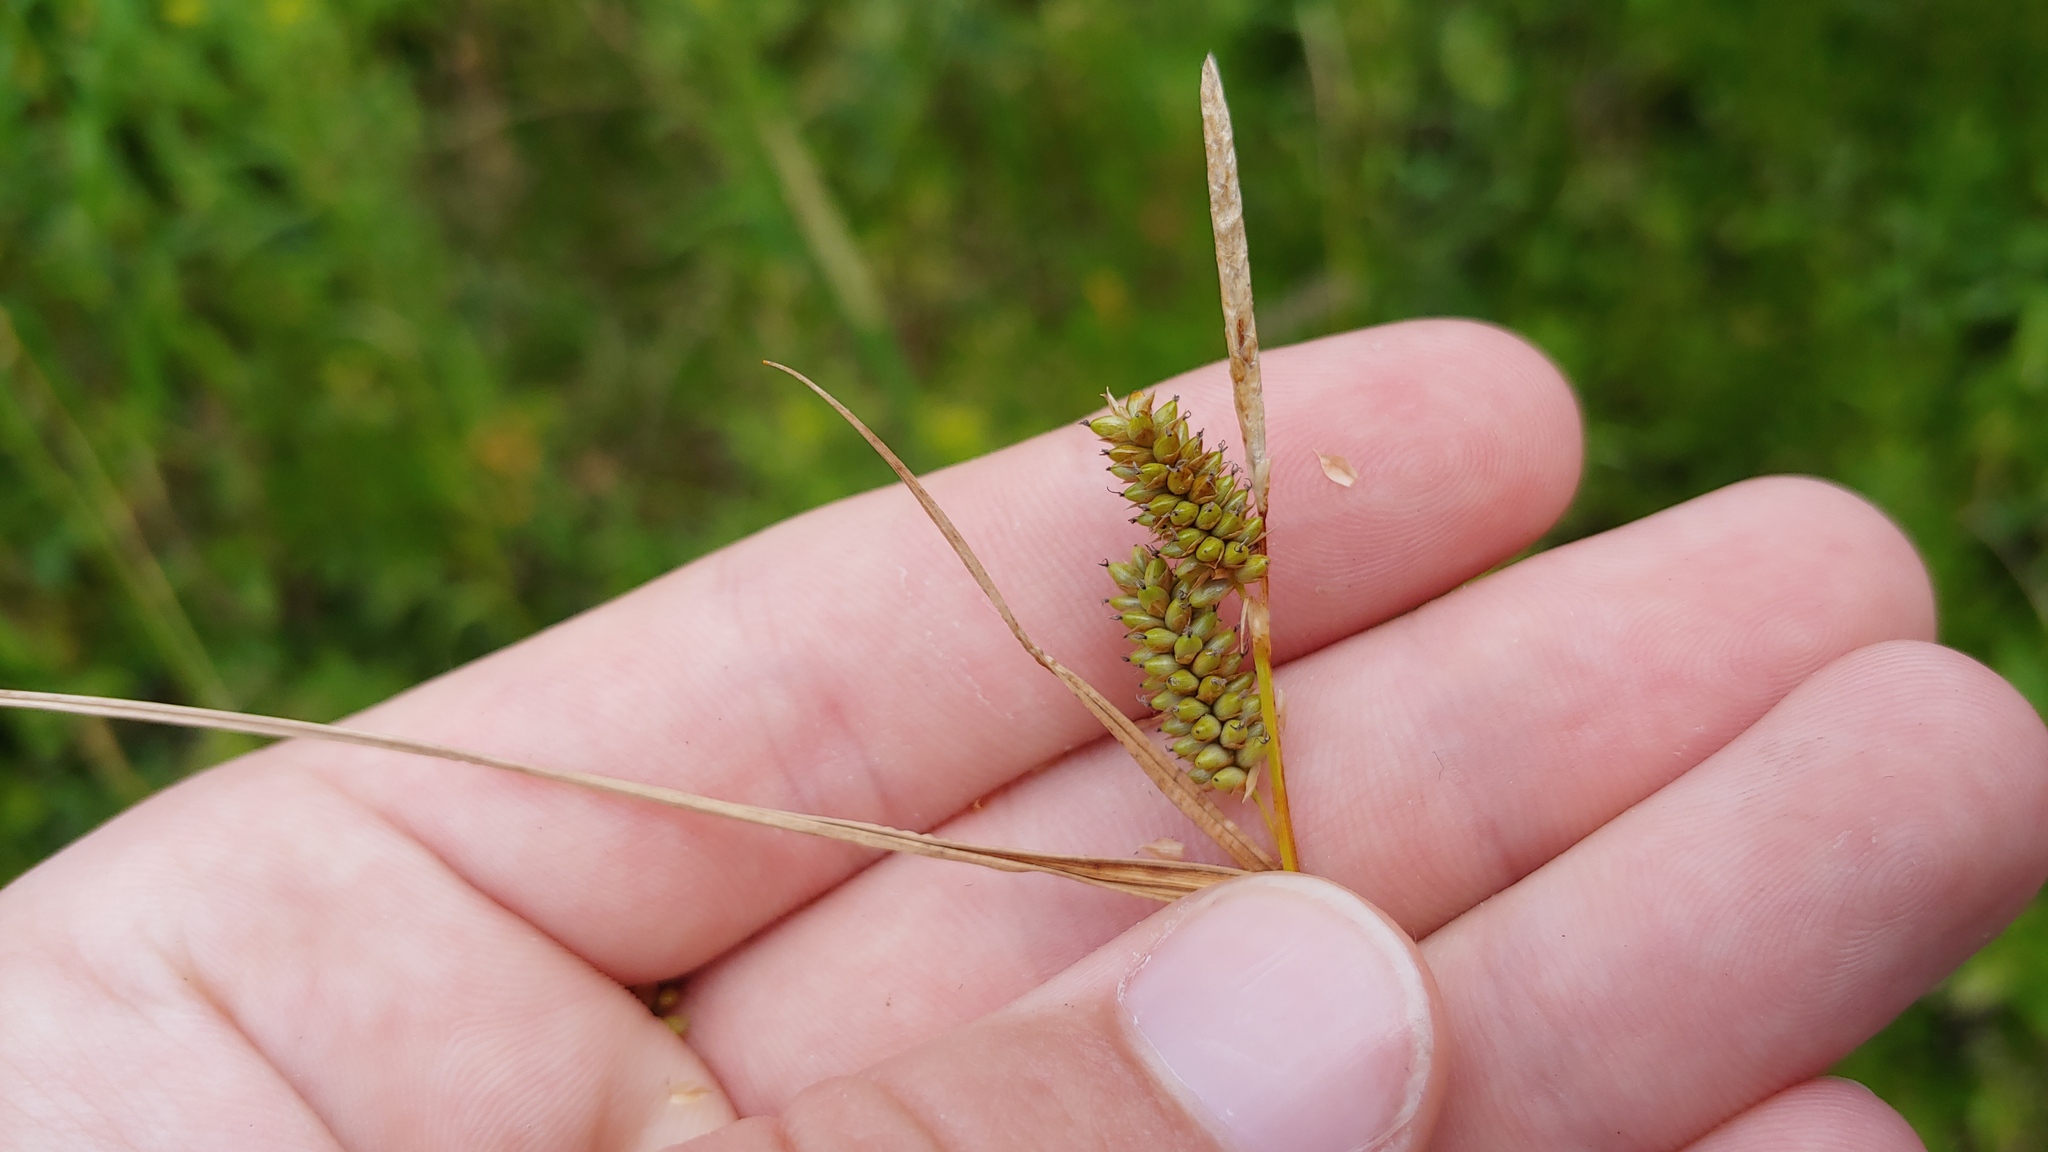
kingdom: Plantae
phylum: Tracheophyta
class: Liliopsida
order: Poales
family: Cyperaceae
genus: Carex
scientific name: Carex pallescens
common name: Pale sedge
